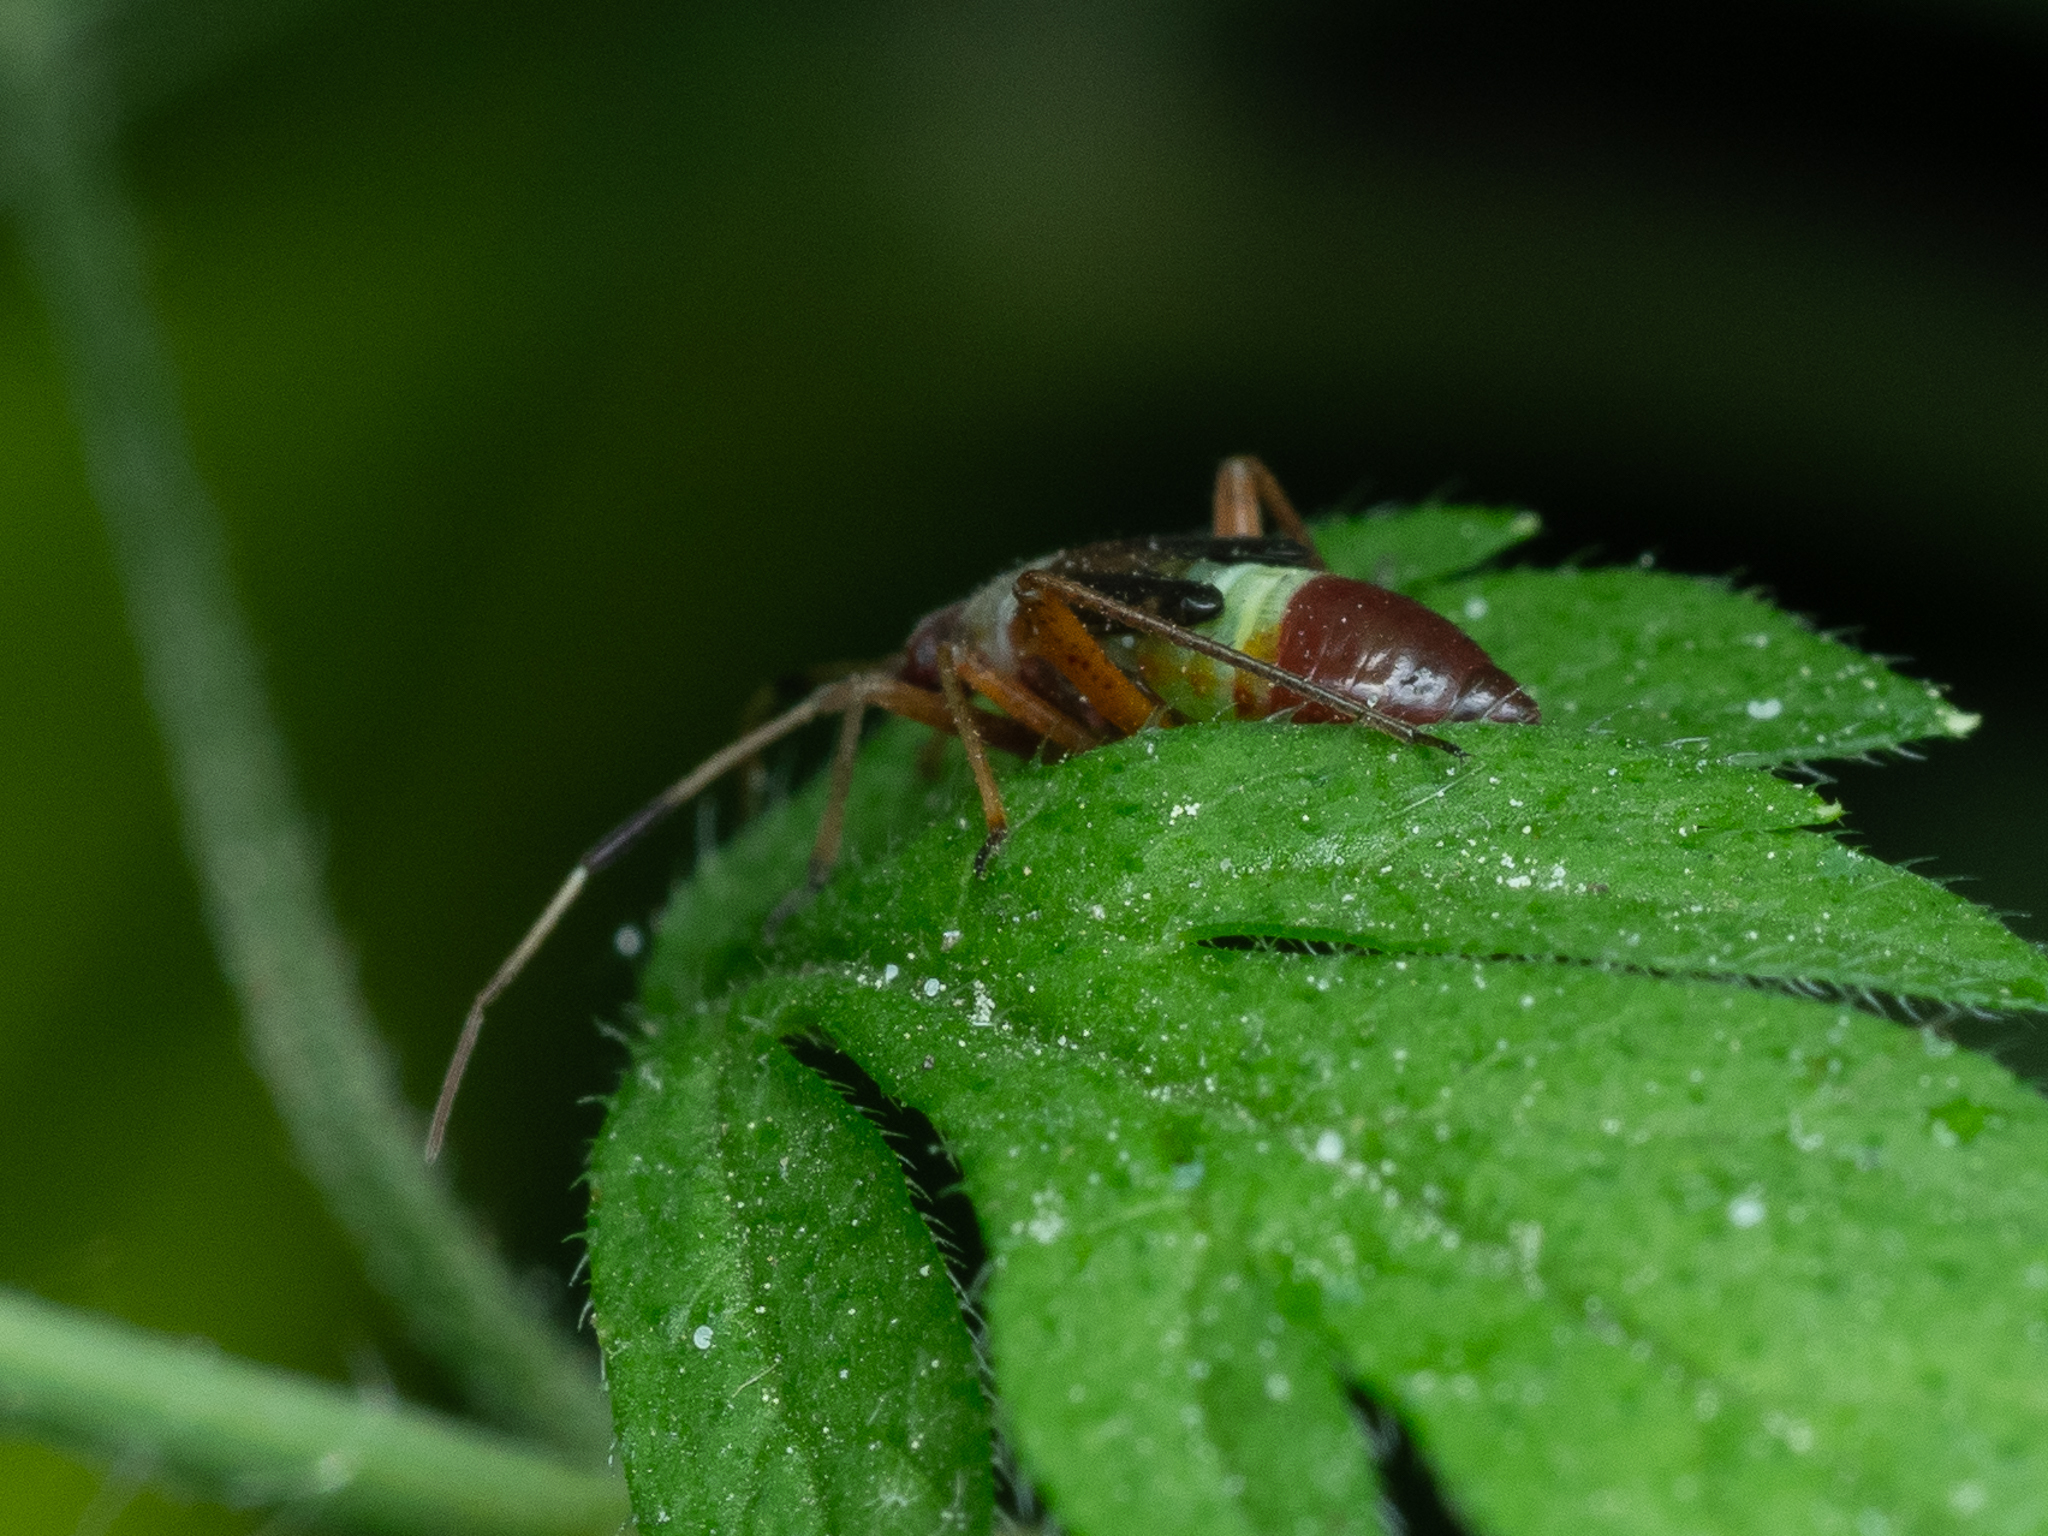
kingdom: Animalia
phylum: Arthropoda
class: Insecta
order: Hemiptera
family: Miridae
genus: Closterotomus
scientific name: Closterotomus biclavatus
